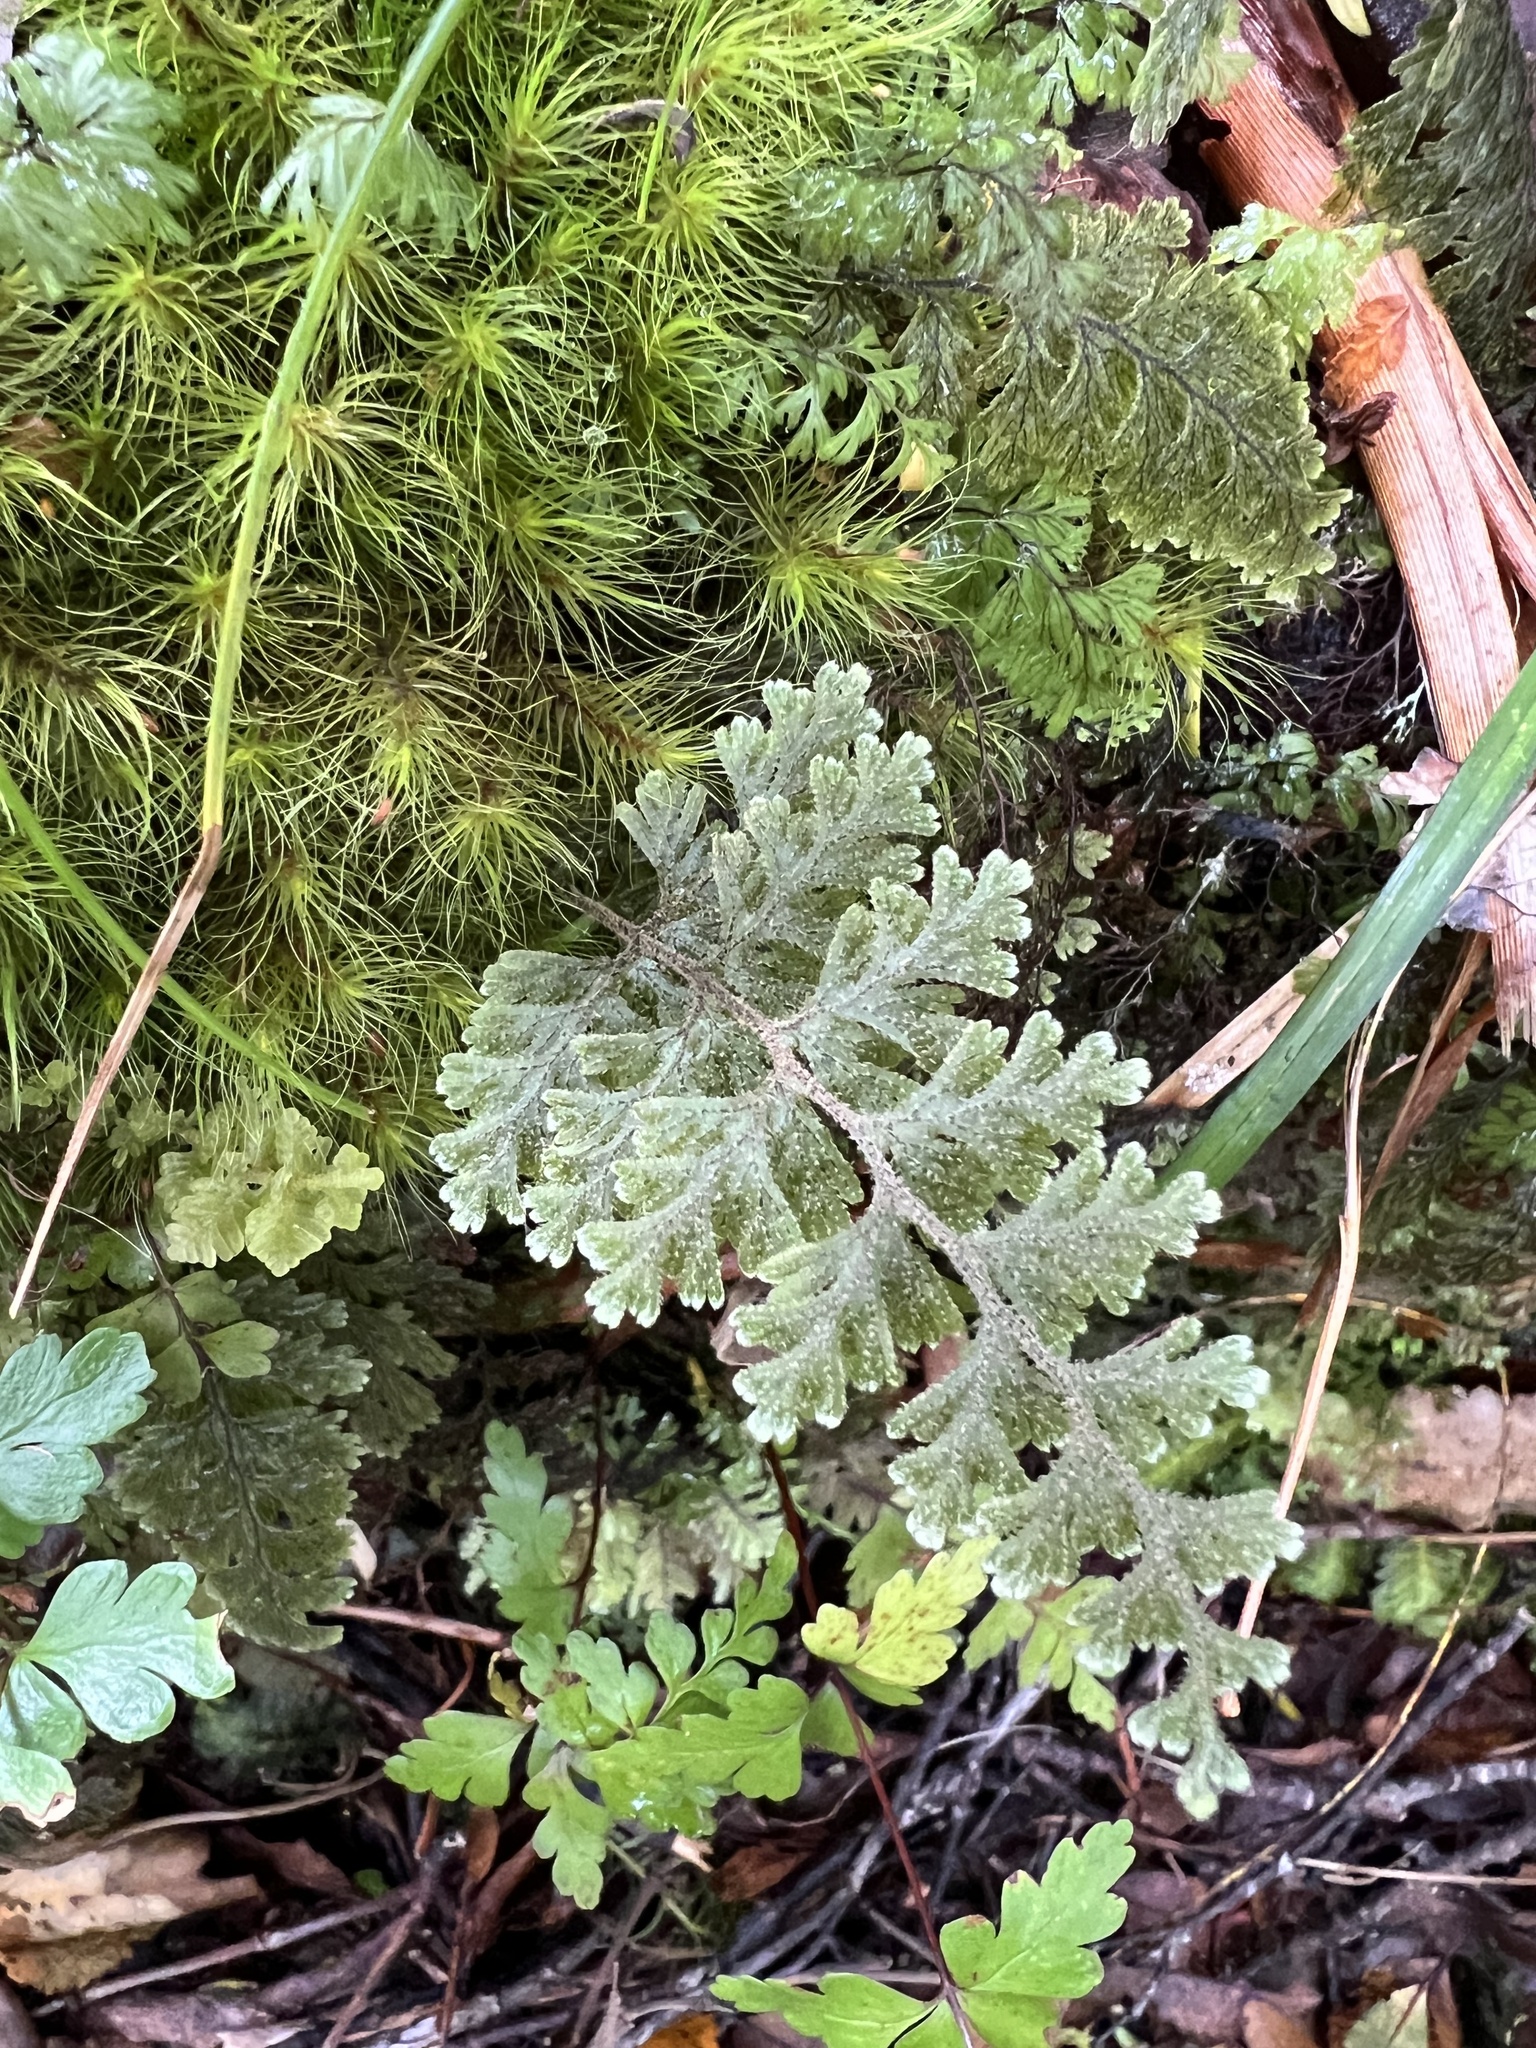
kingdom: Plantae
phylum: Tracheophyta
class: Polypodiopsida
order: Hymenophyllales
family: Hymenophyllaceae
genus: Hymenophyllum
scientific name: Hymenophyllum frankliniae
